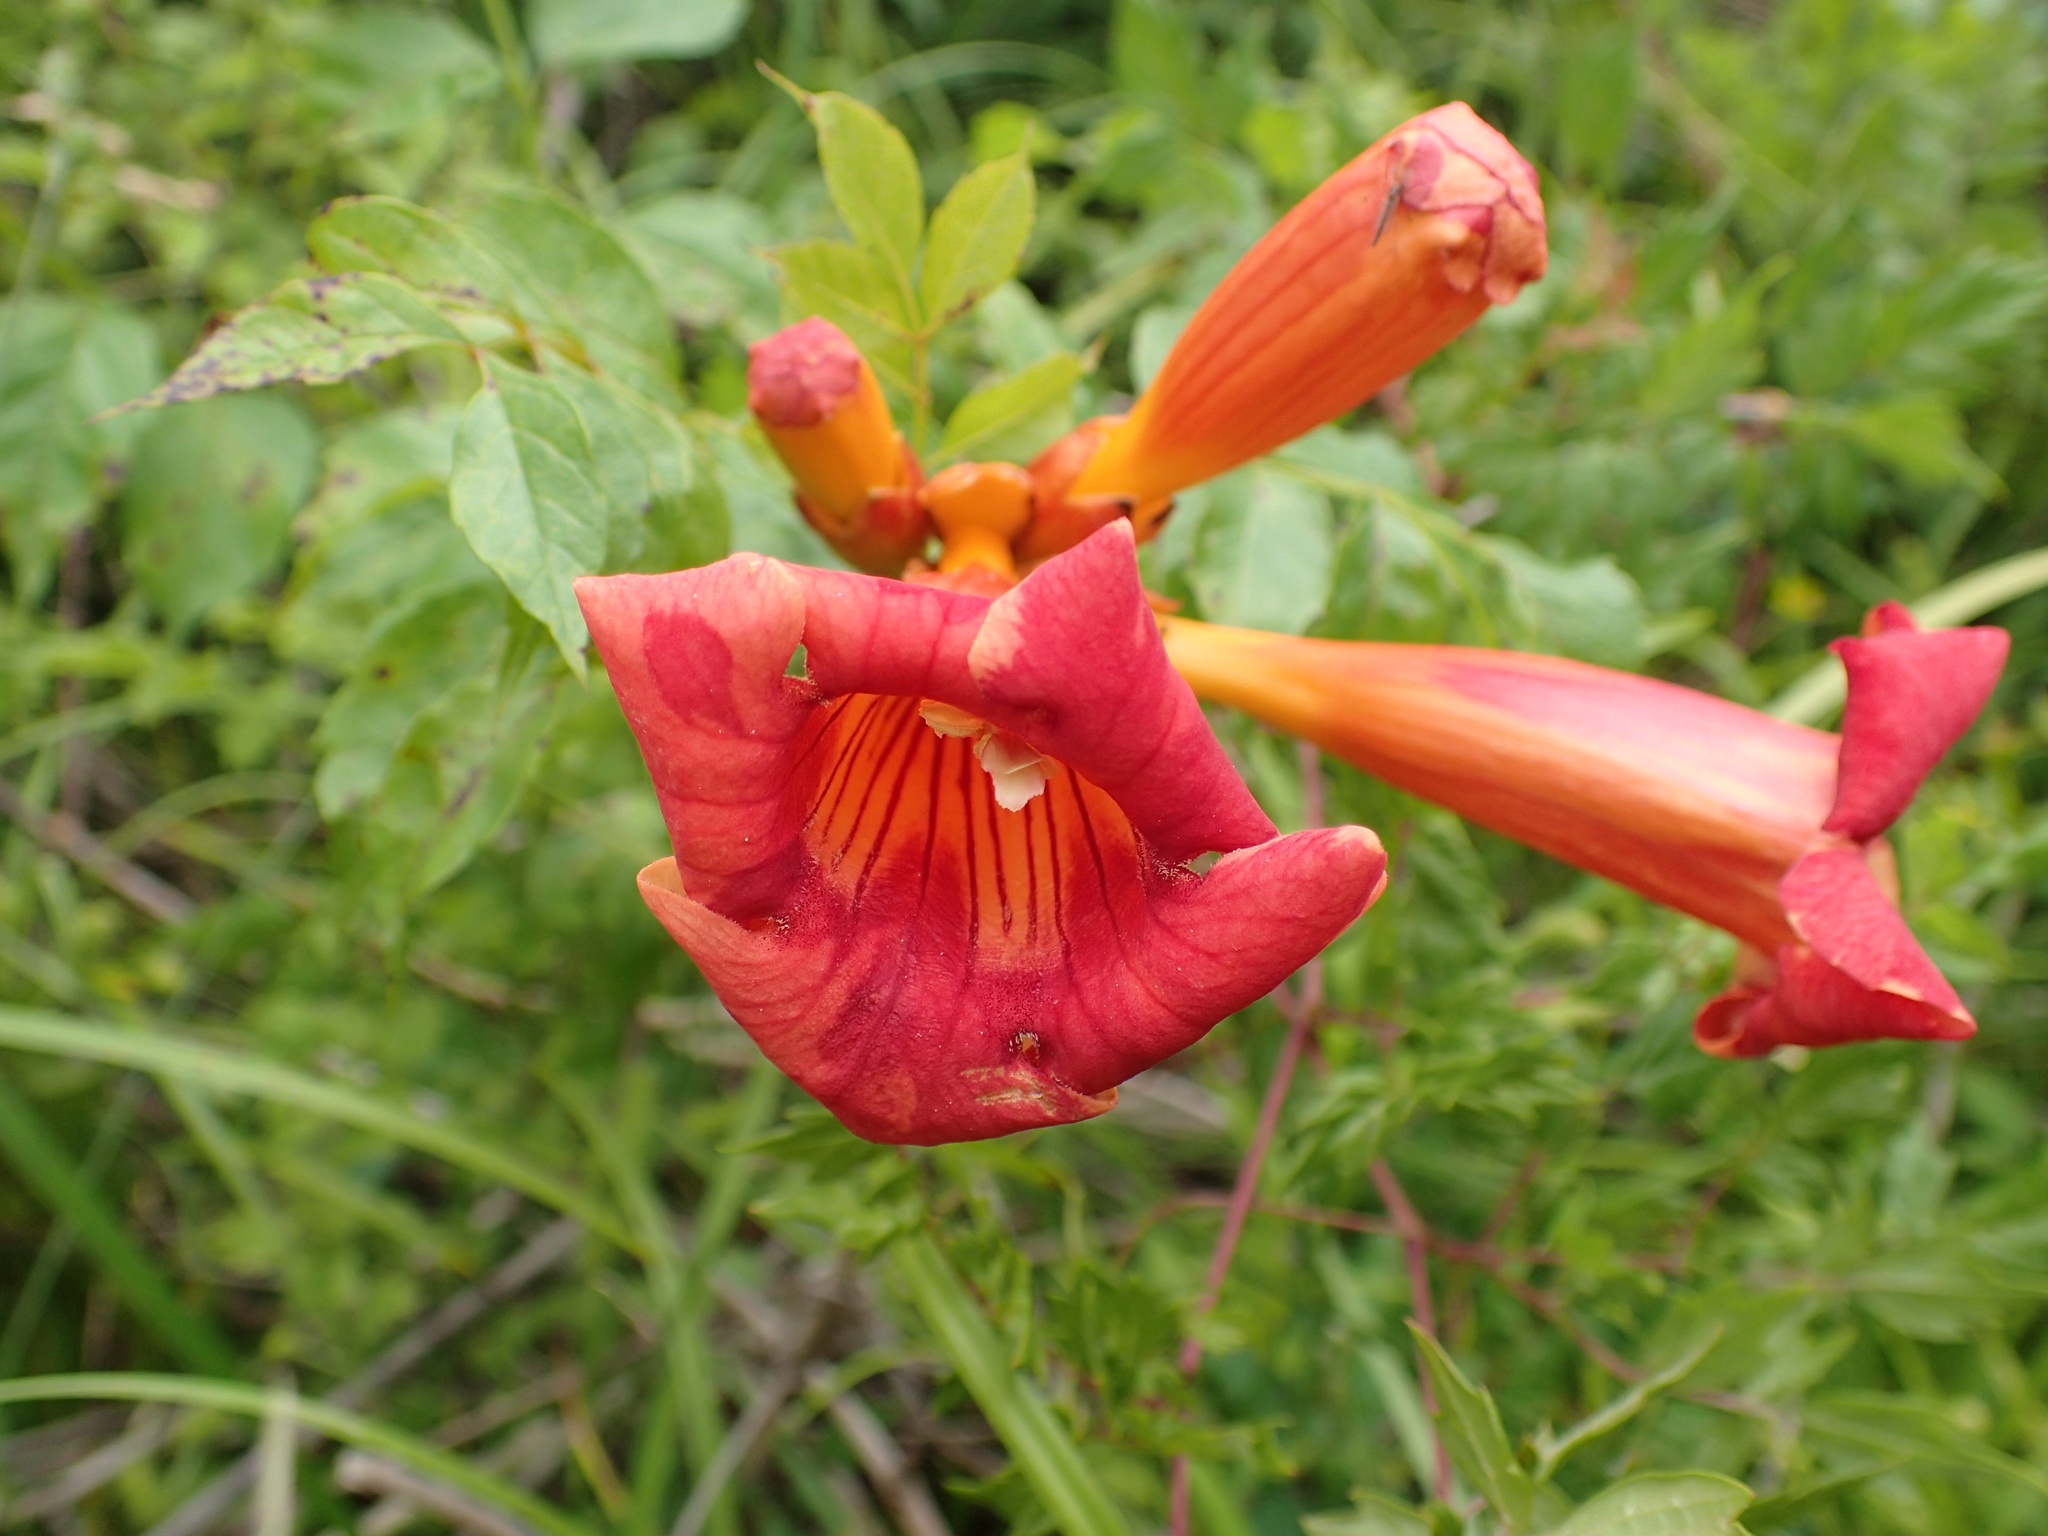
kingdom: Plantae
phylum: Tracheophyta
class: Magnoliopsida
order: Lamiales
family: Bignoniaceae
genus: Campsis
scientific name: Campsis radicans
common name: Trumpet-creeper
